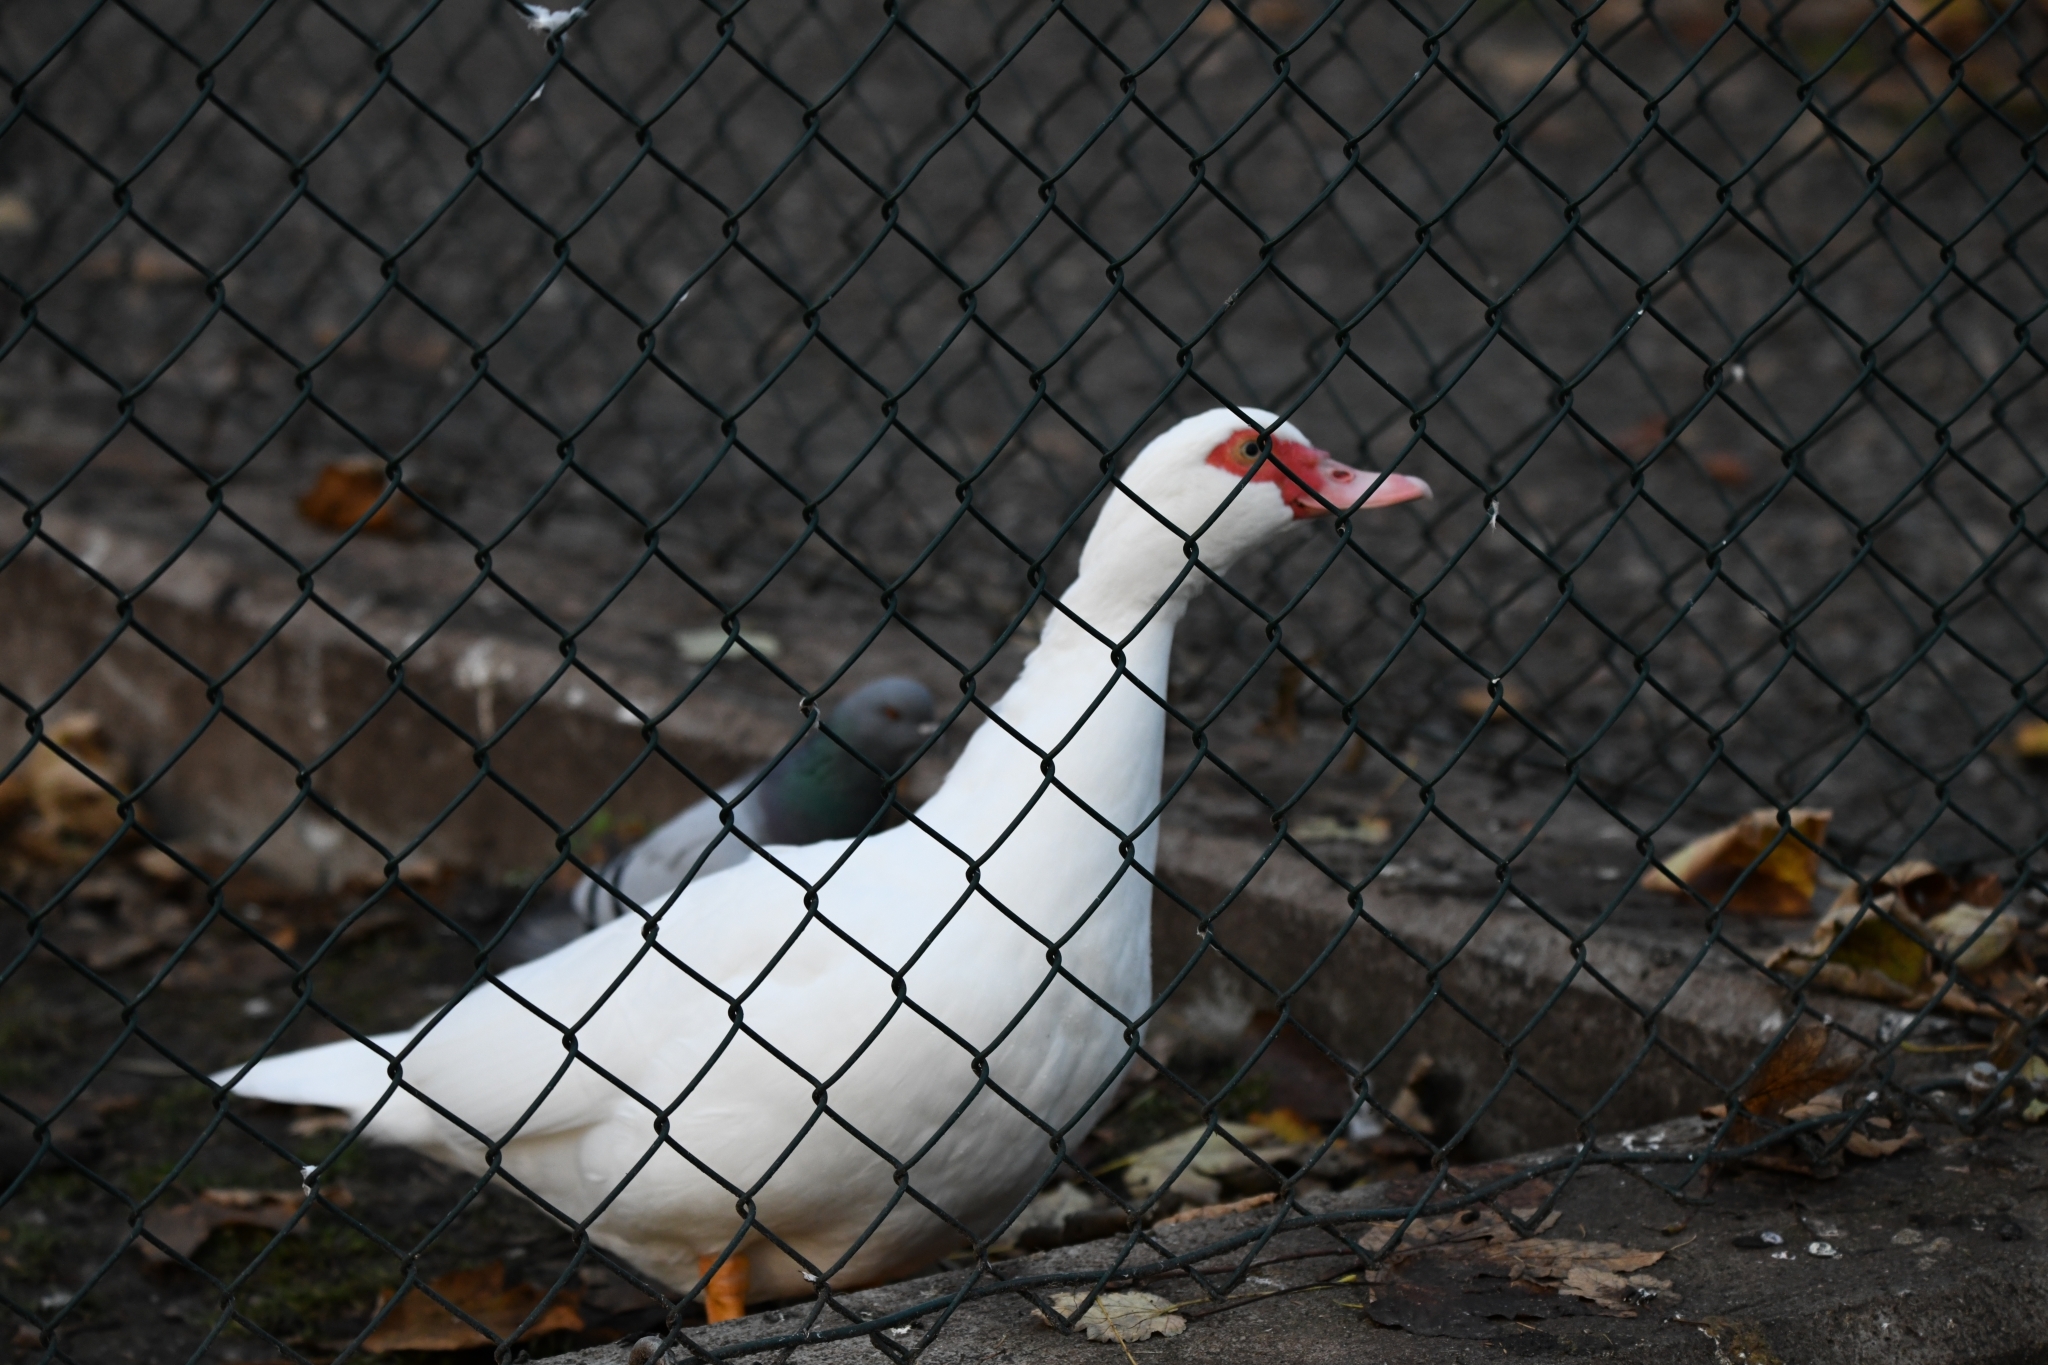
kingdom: Animalia
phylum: Chordata
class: Aves
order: Anseriformes
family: Anatidae
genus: Cairina
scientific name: Cairina moschata
